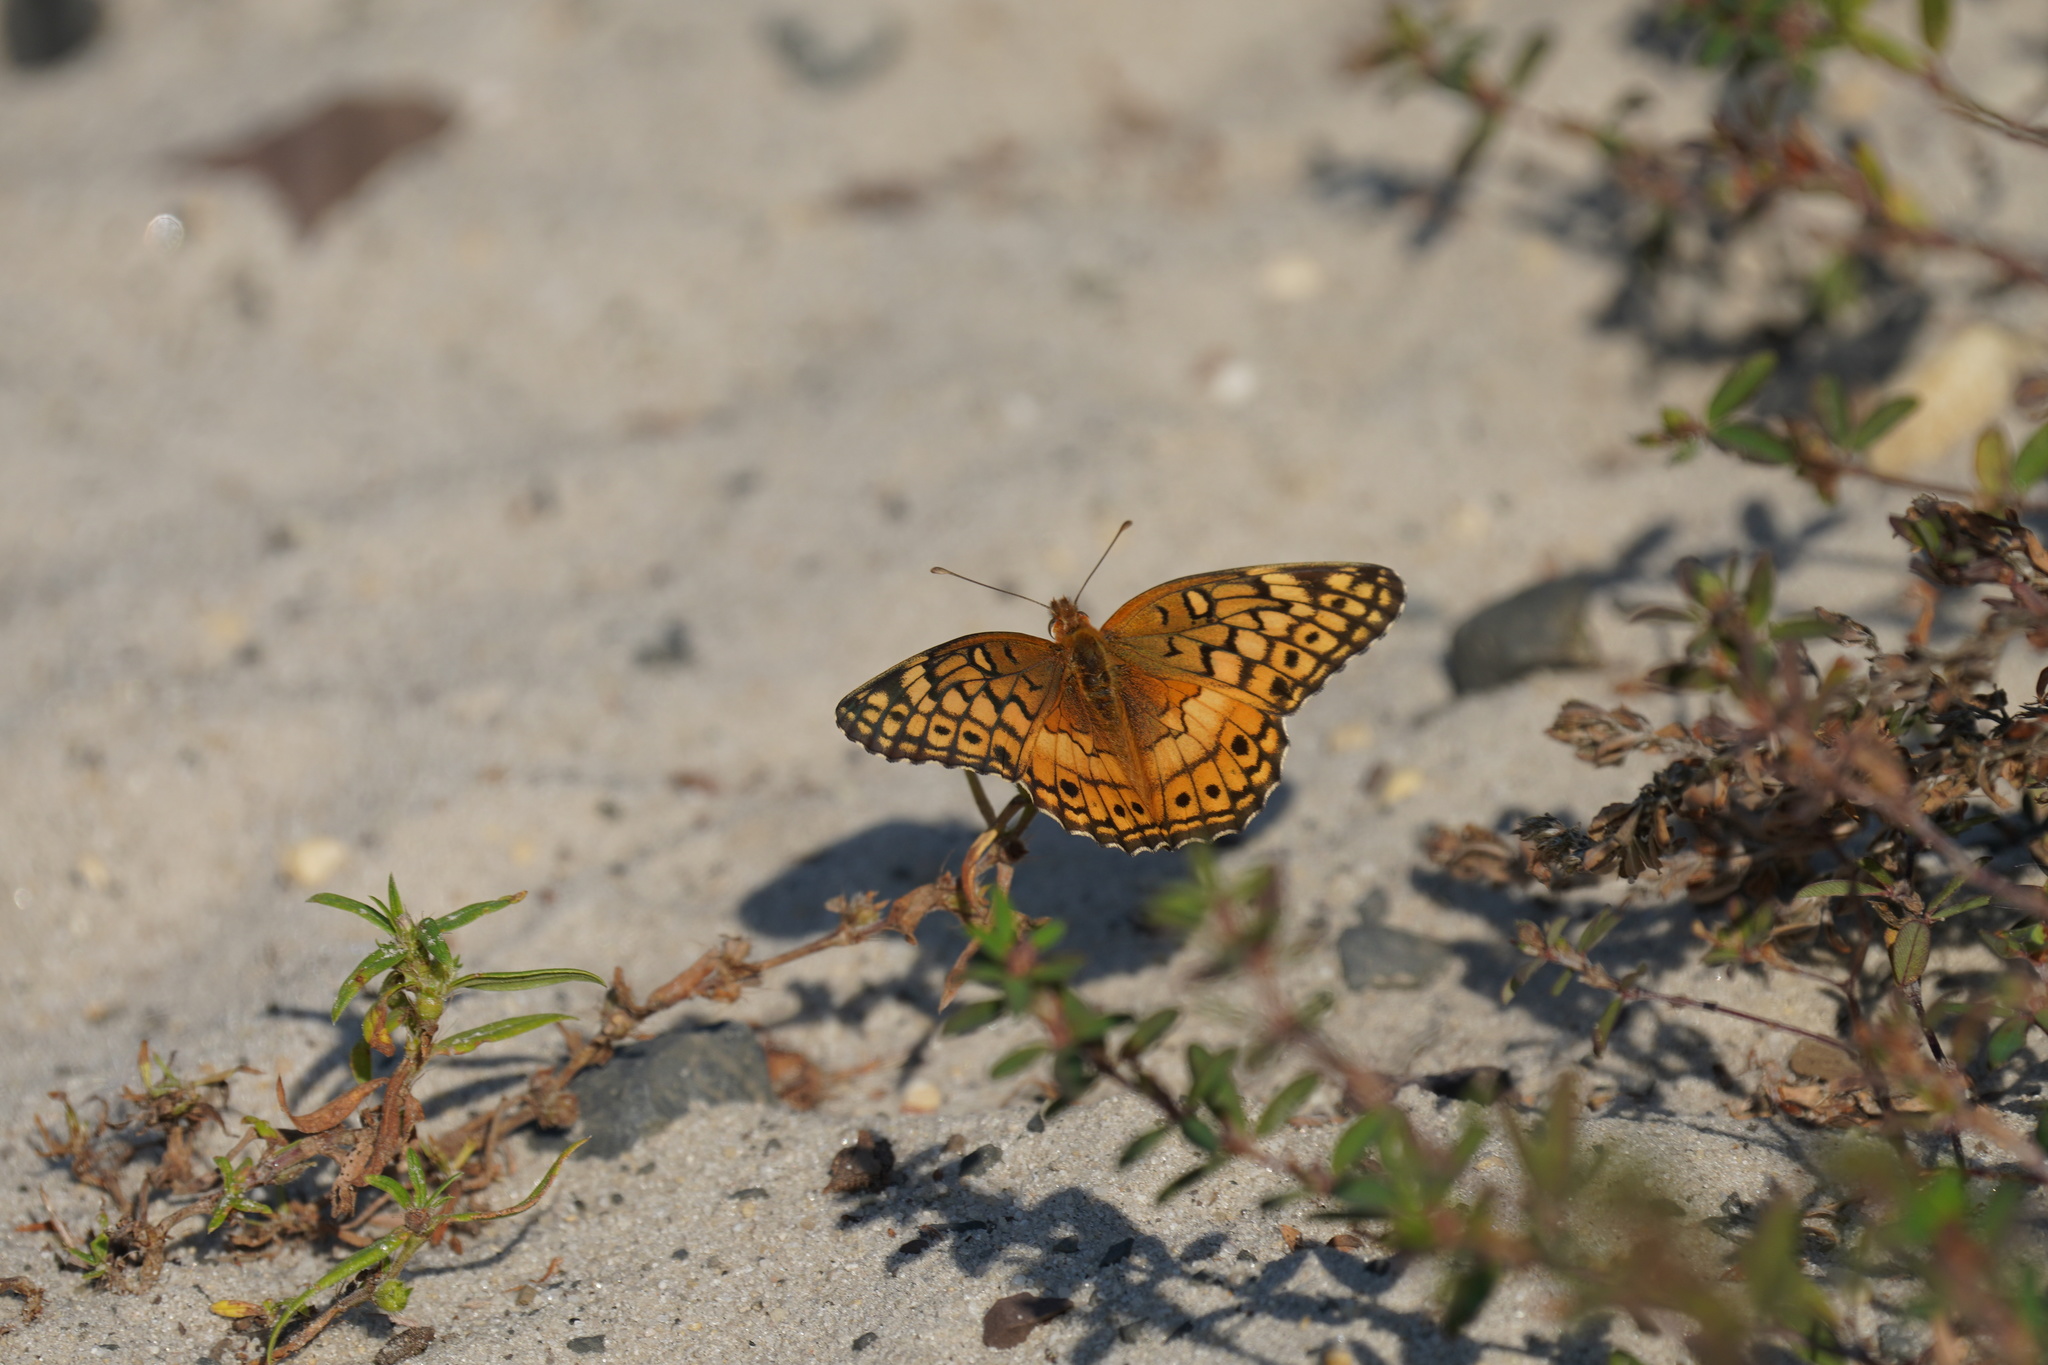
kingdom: Animalia
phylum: Arthropoda
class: Insecta
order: Lepidoptera
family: Nymphalidae
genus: Euptoieta
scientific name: Euptoieta claudia
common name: Variegated fritillary
